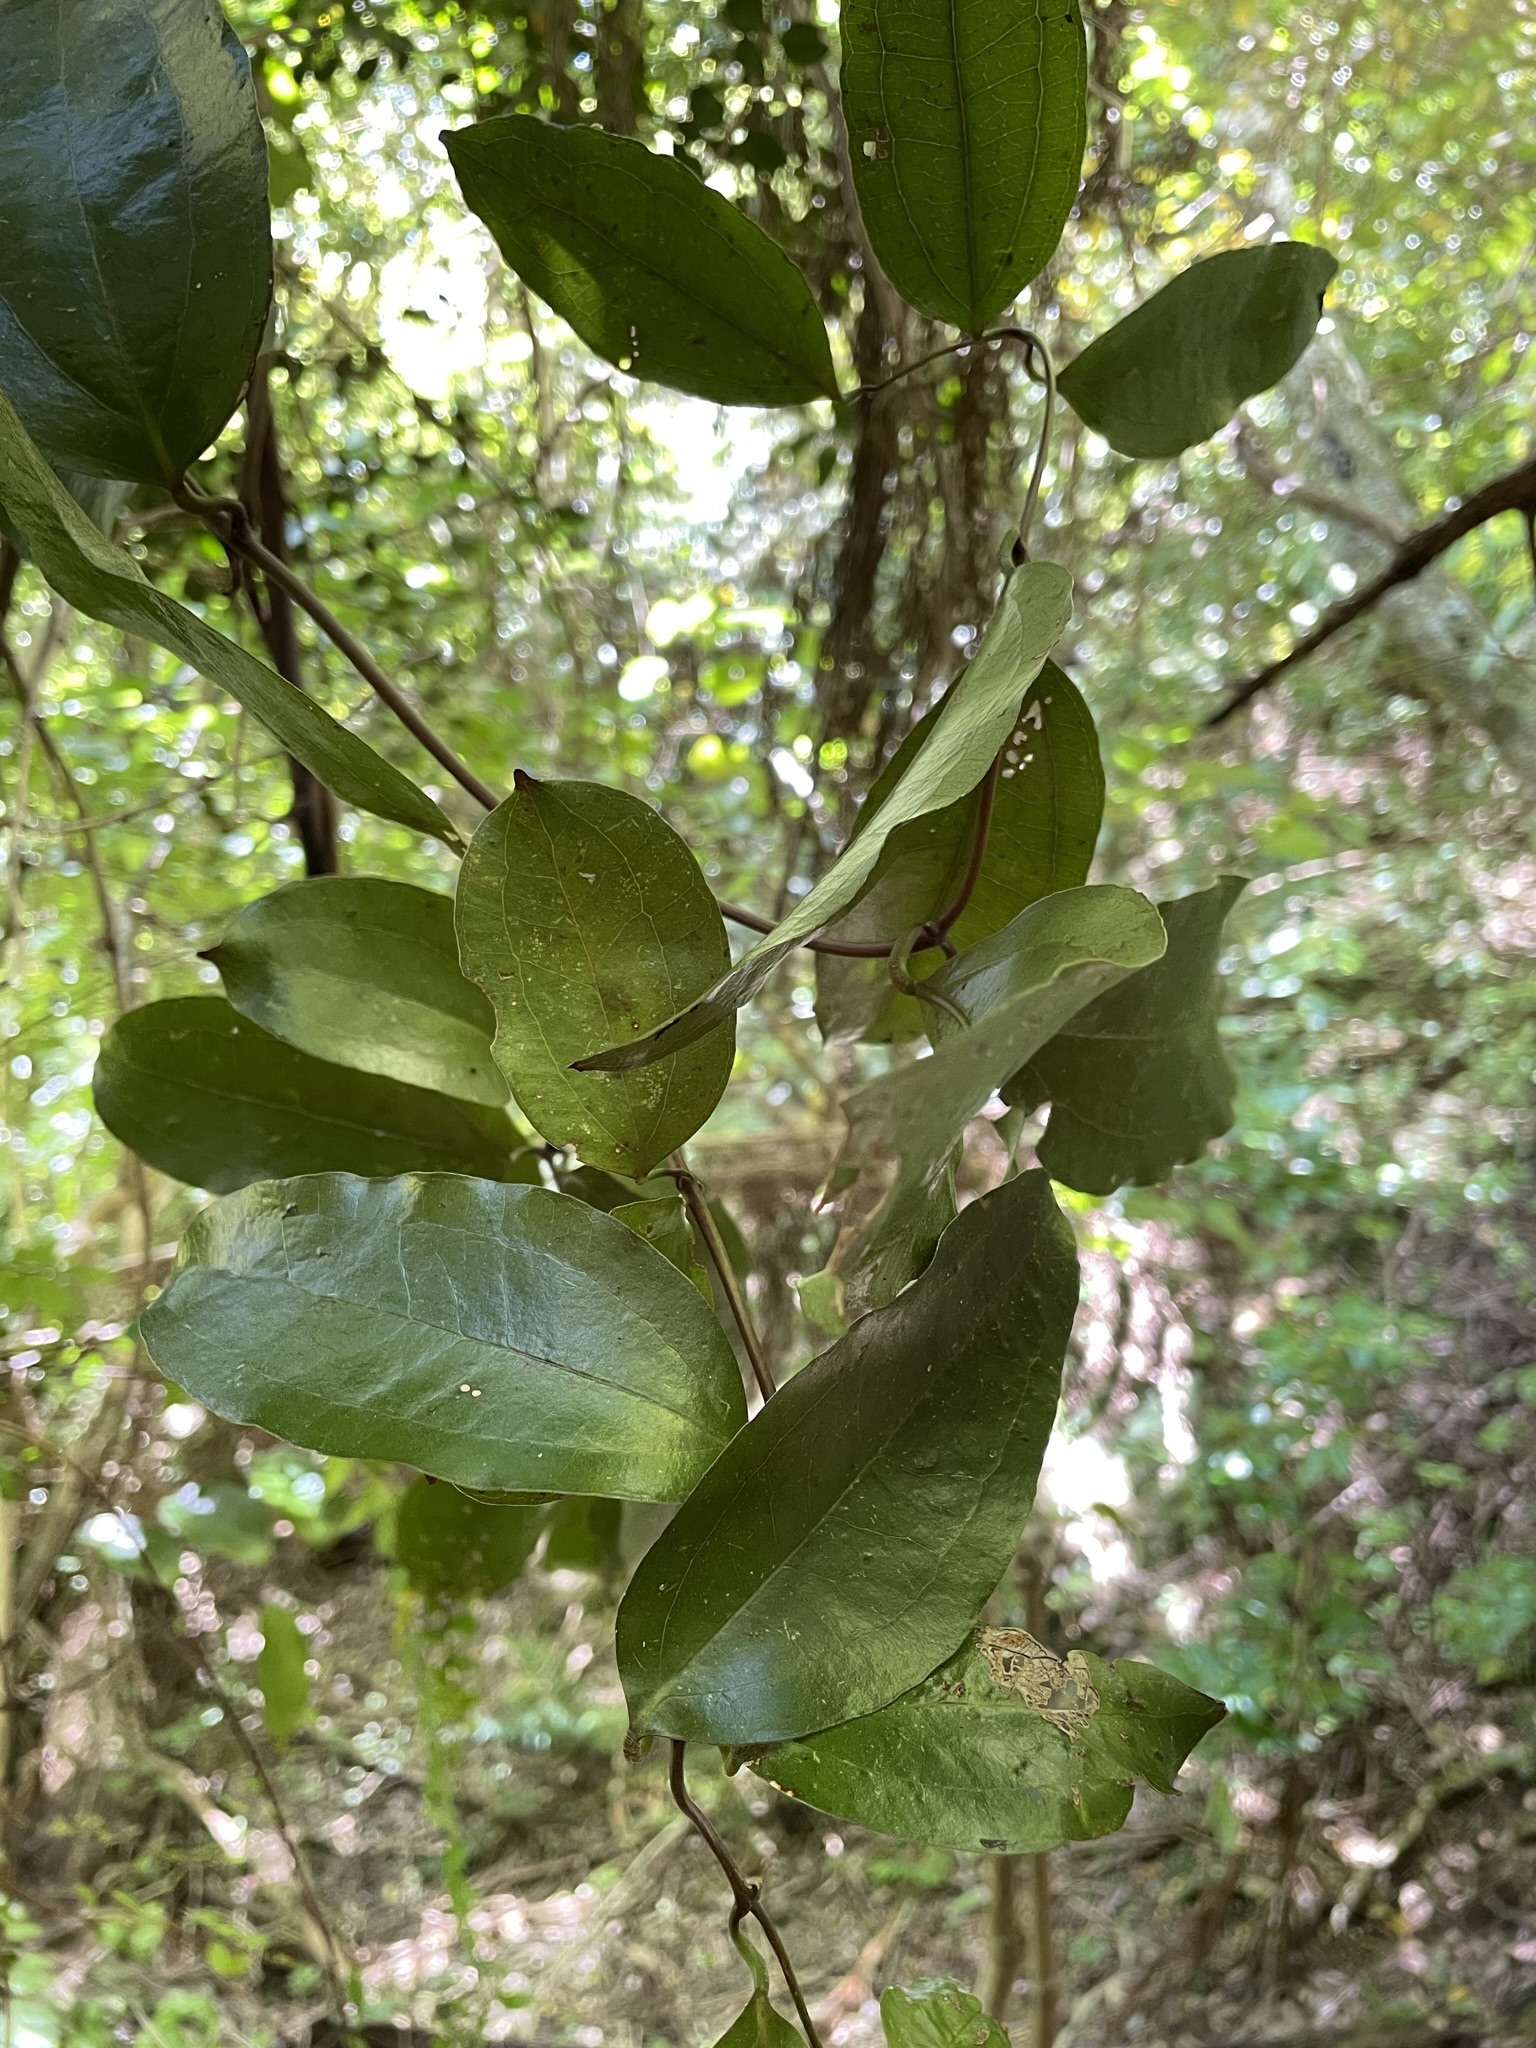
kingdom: Plantae
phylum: Tracheophyta
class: Liliopsida
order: Liliales
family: Ripogonaceae
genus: Ripogonum
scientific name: Ripogonum scandens
